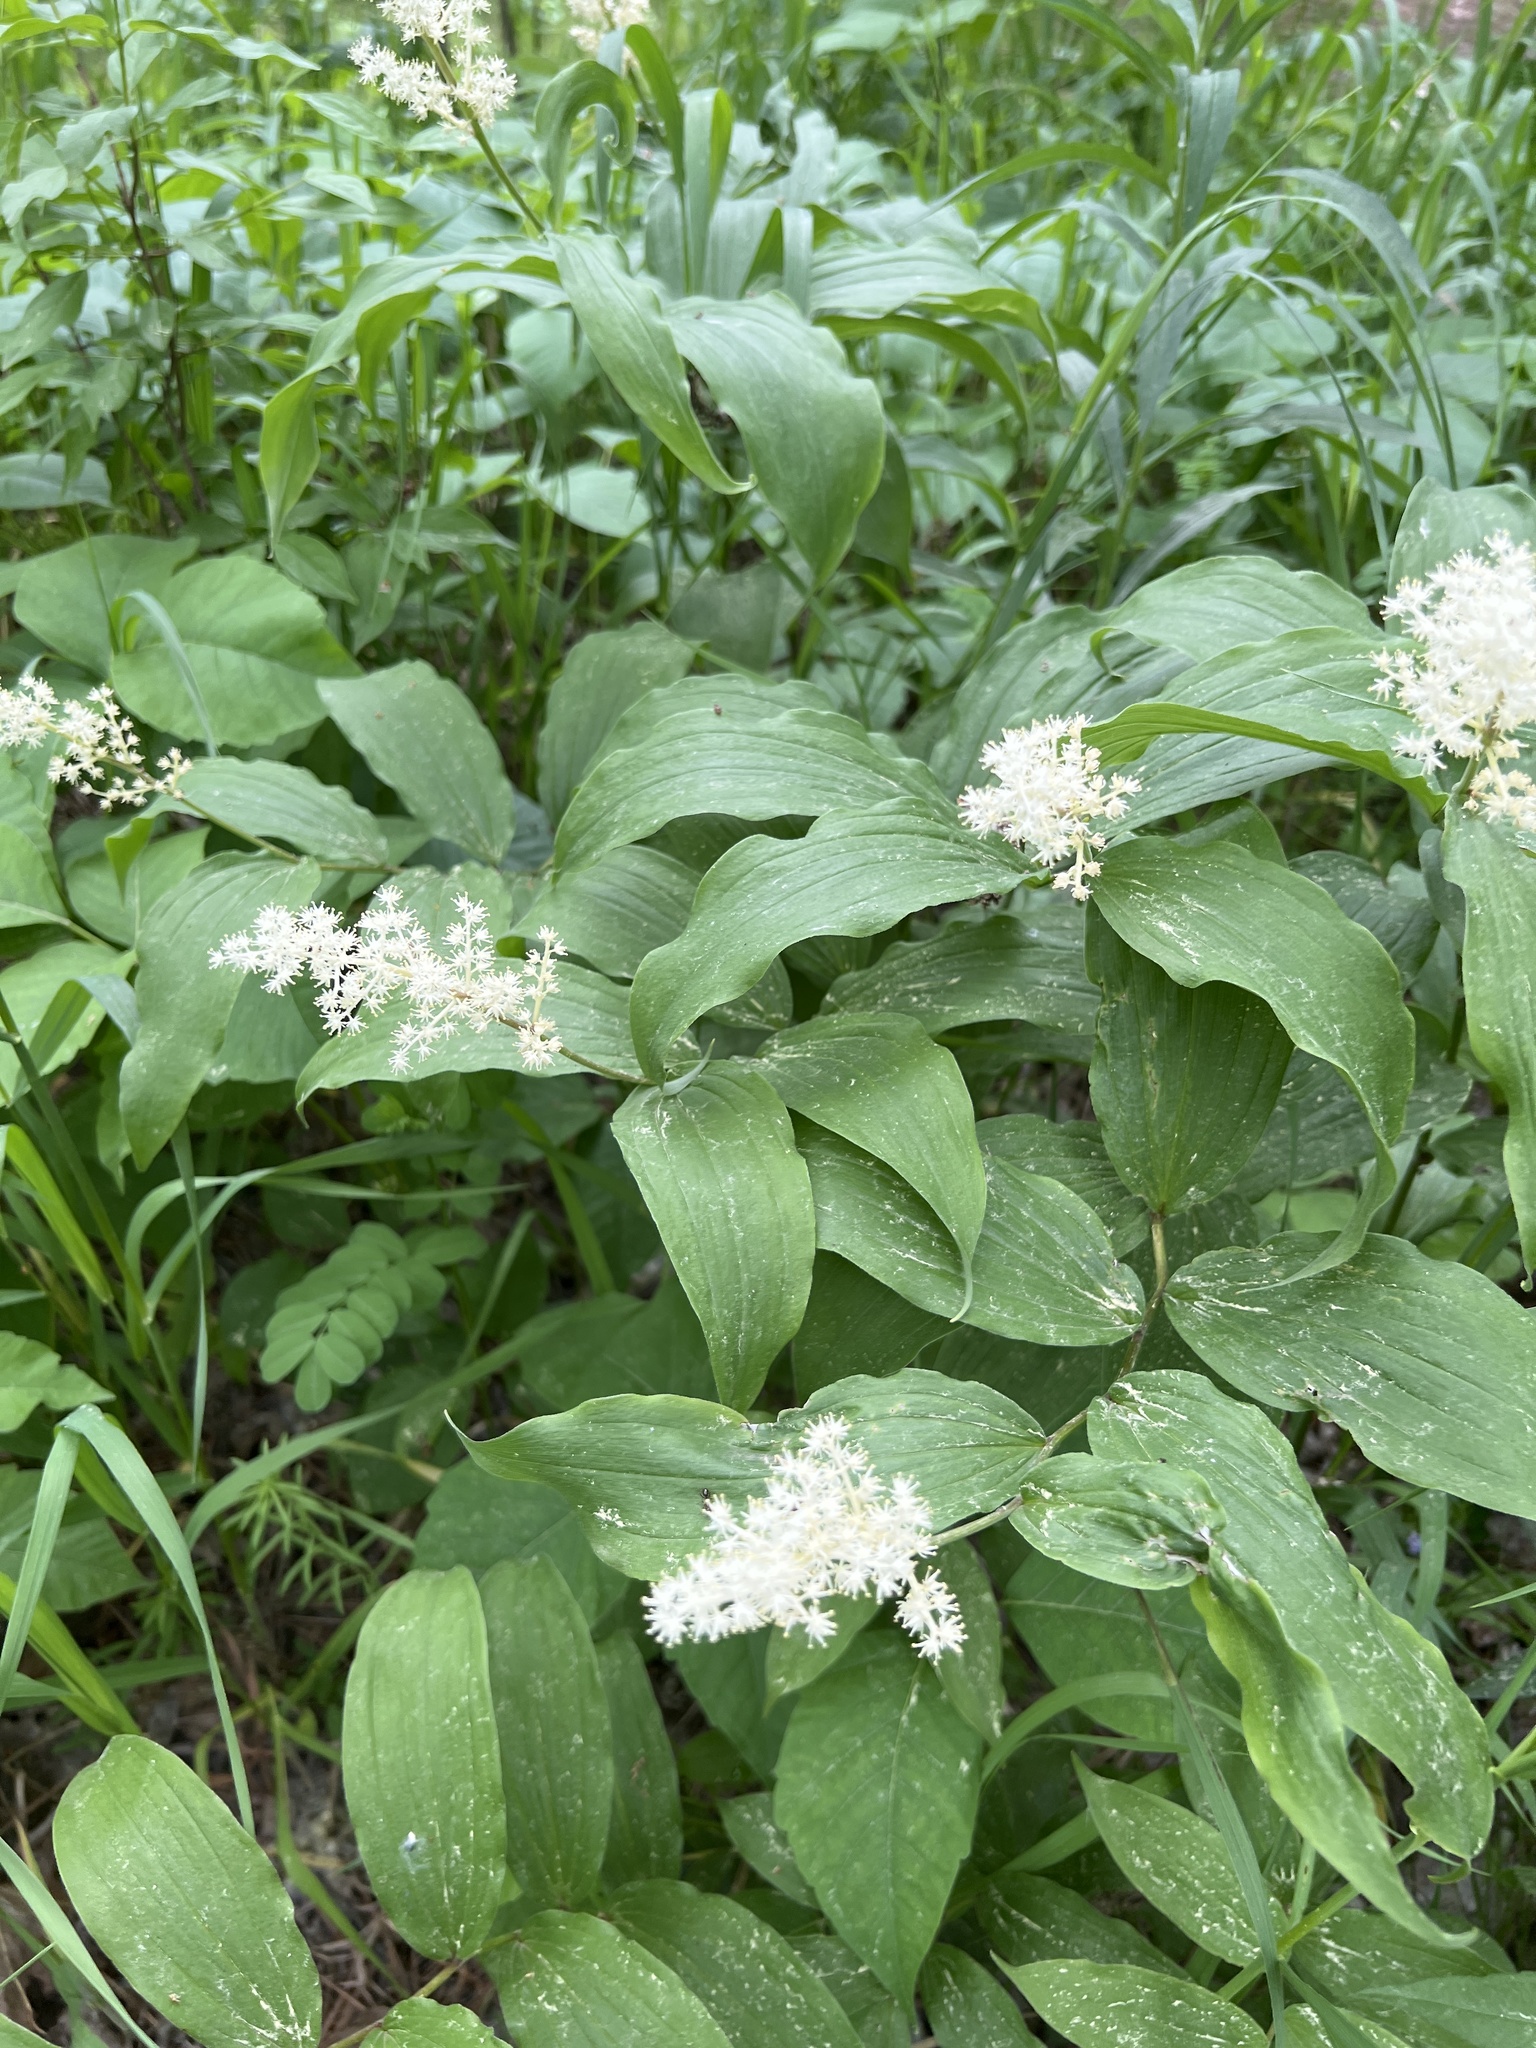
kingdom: Plantae
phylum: Tracheophyta
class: Liliopsida
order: Asparagales
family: Asparagaceae
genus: Maianthemum
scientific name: Maianthemum racemosum
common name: False spikenard
